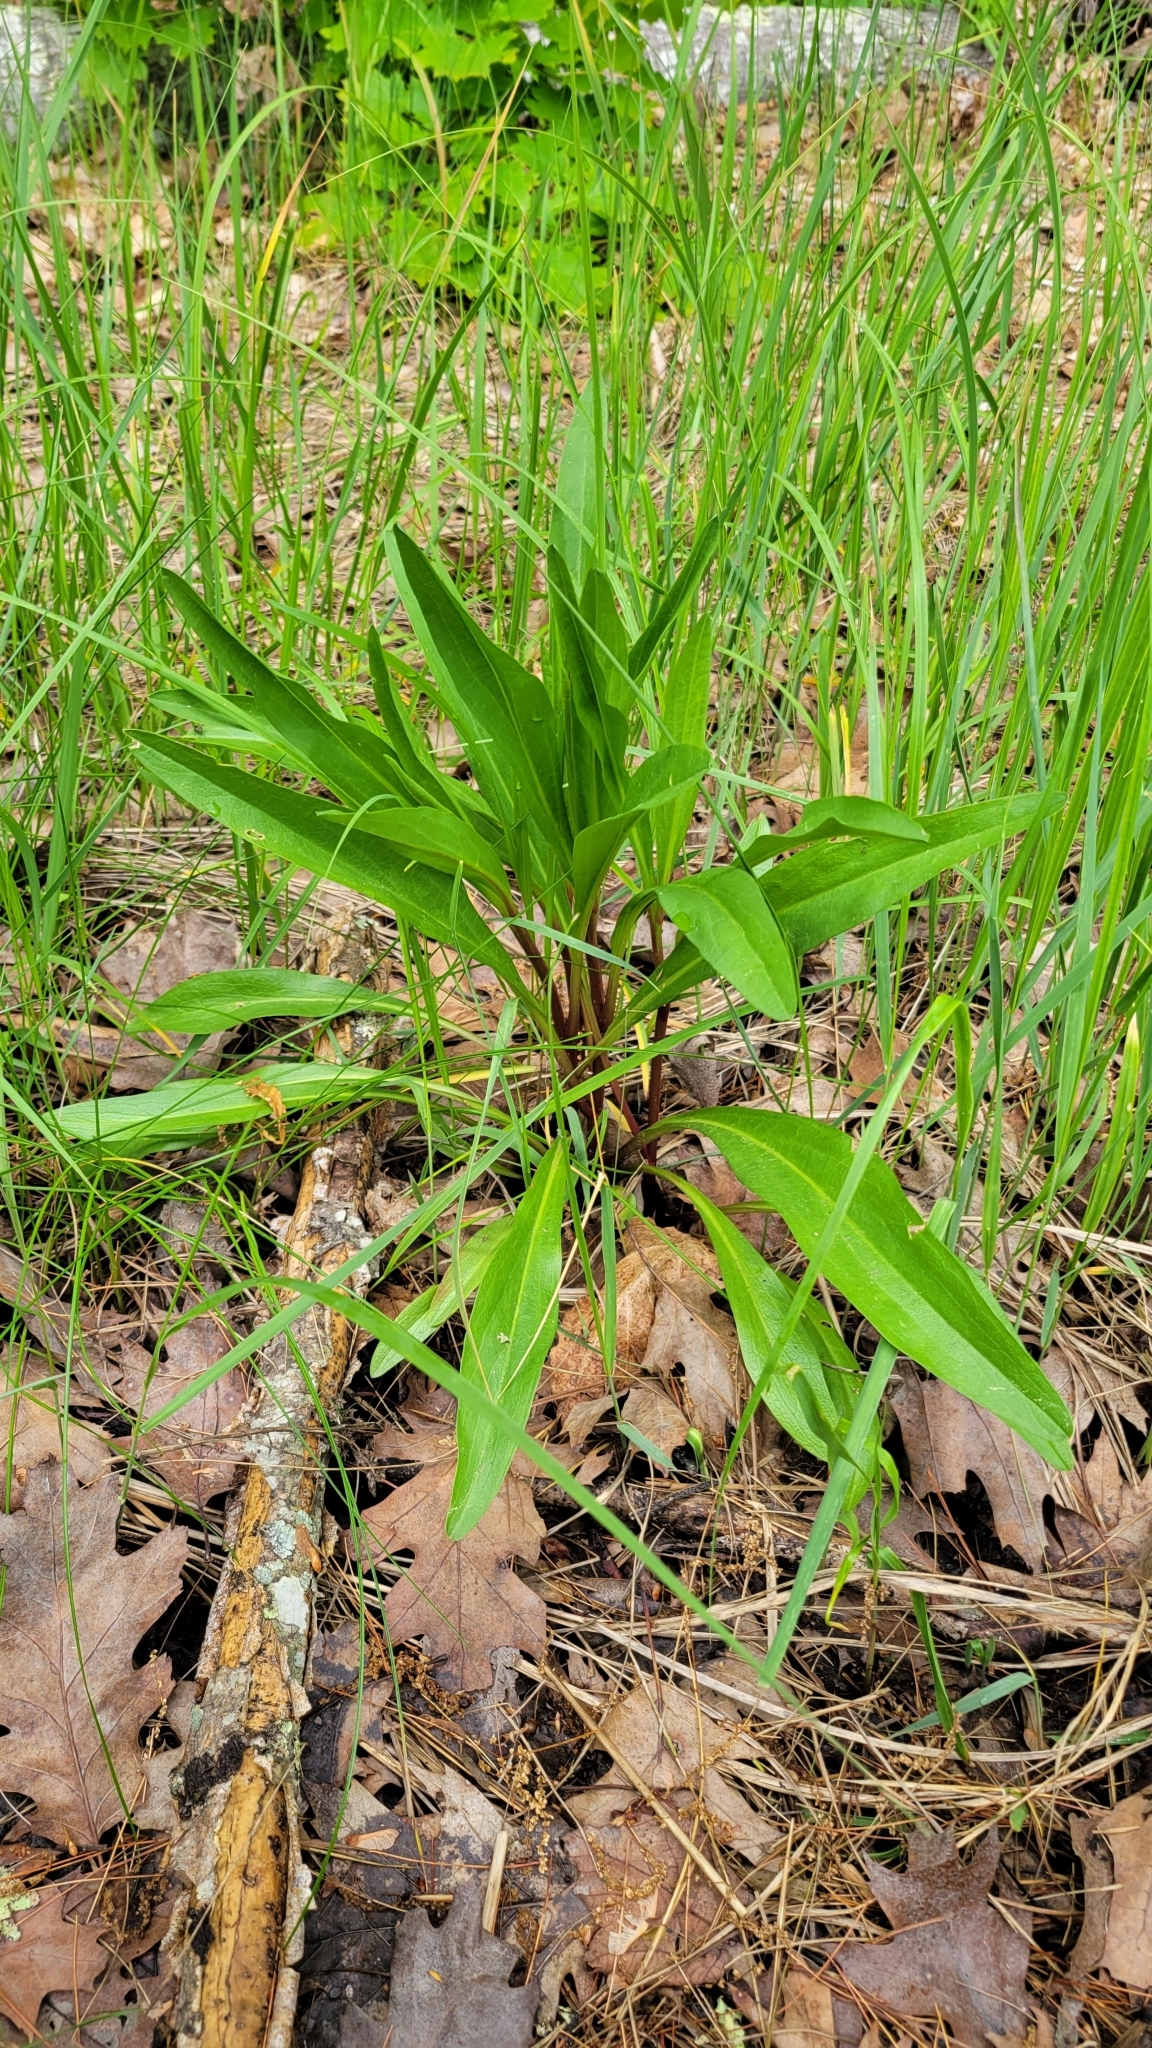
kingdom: Plantae
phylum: Tracheophyta
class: Magnoliopsida
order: Asterales
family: Asteraceae
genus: Solidago
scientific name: Solidago sempervirens
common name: Salt-marsh goldenrod
